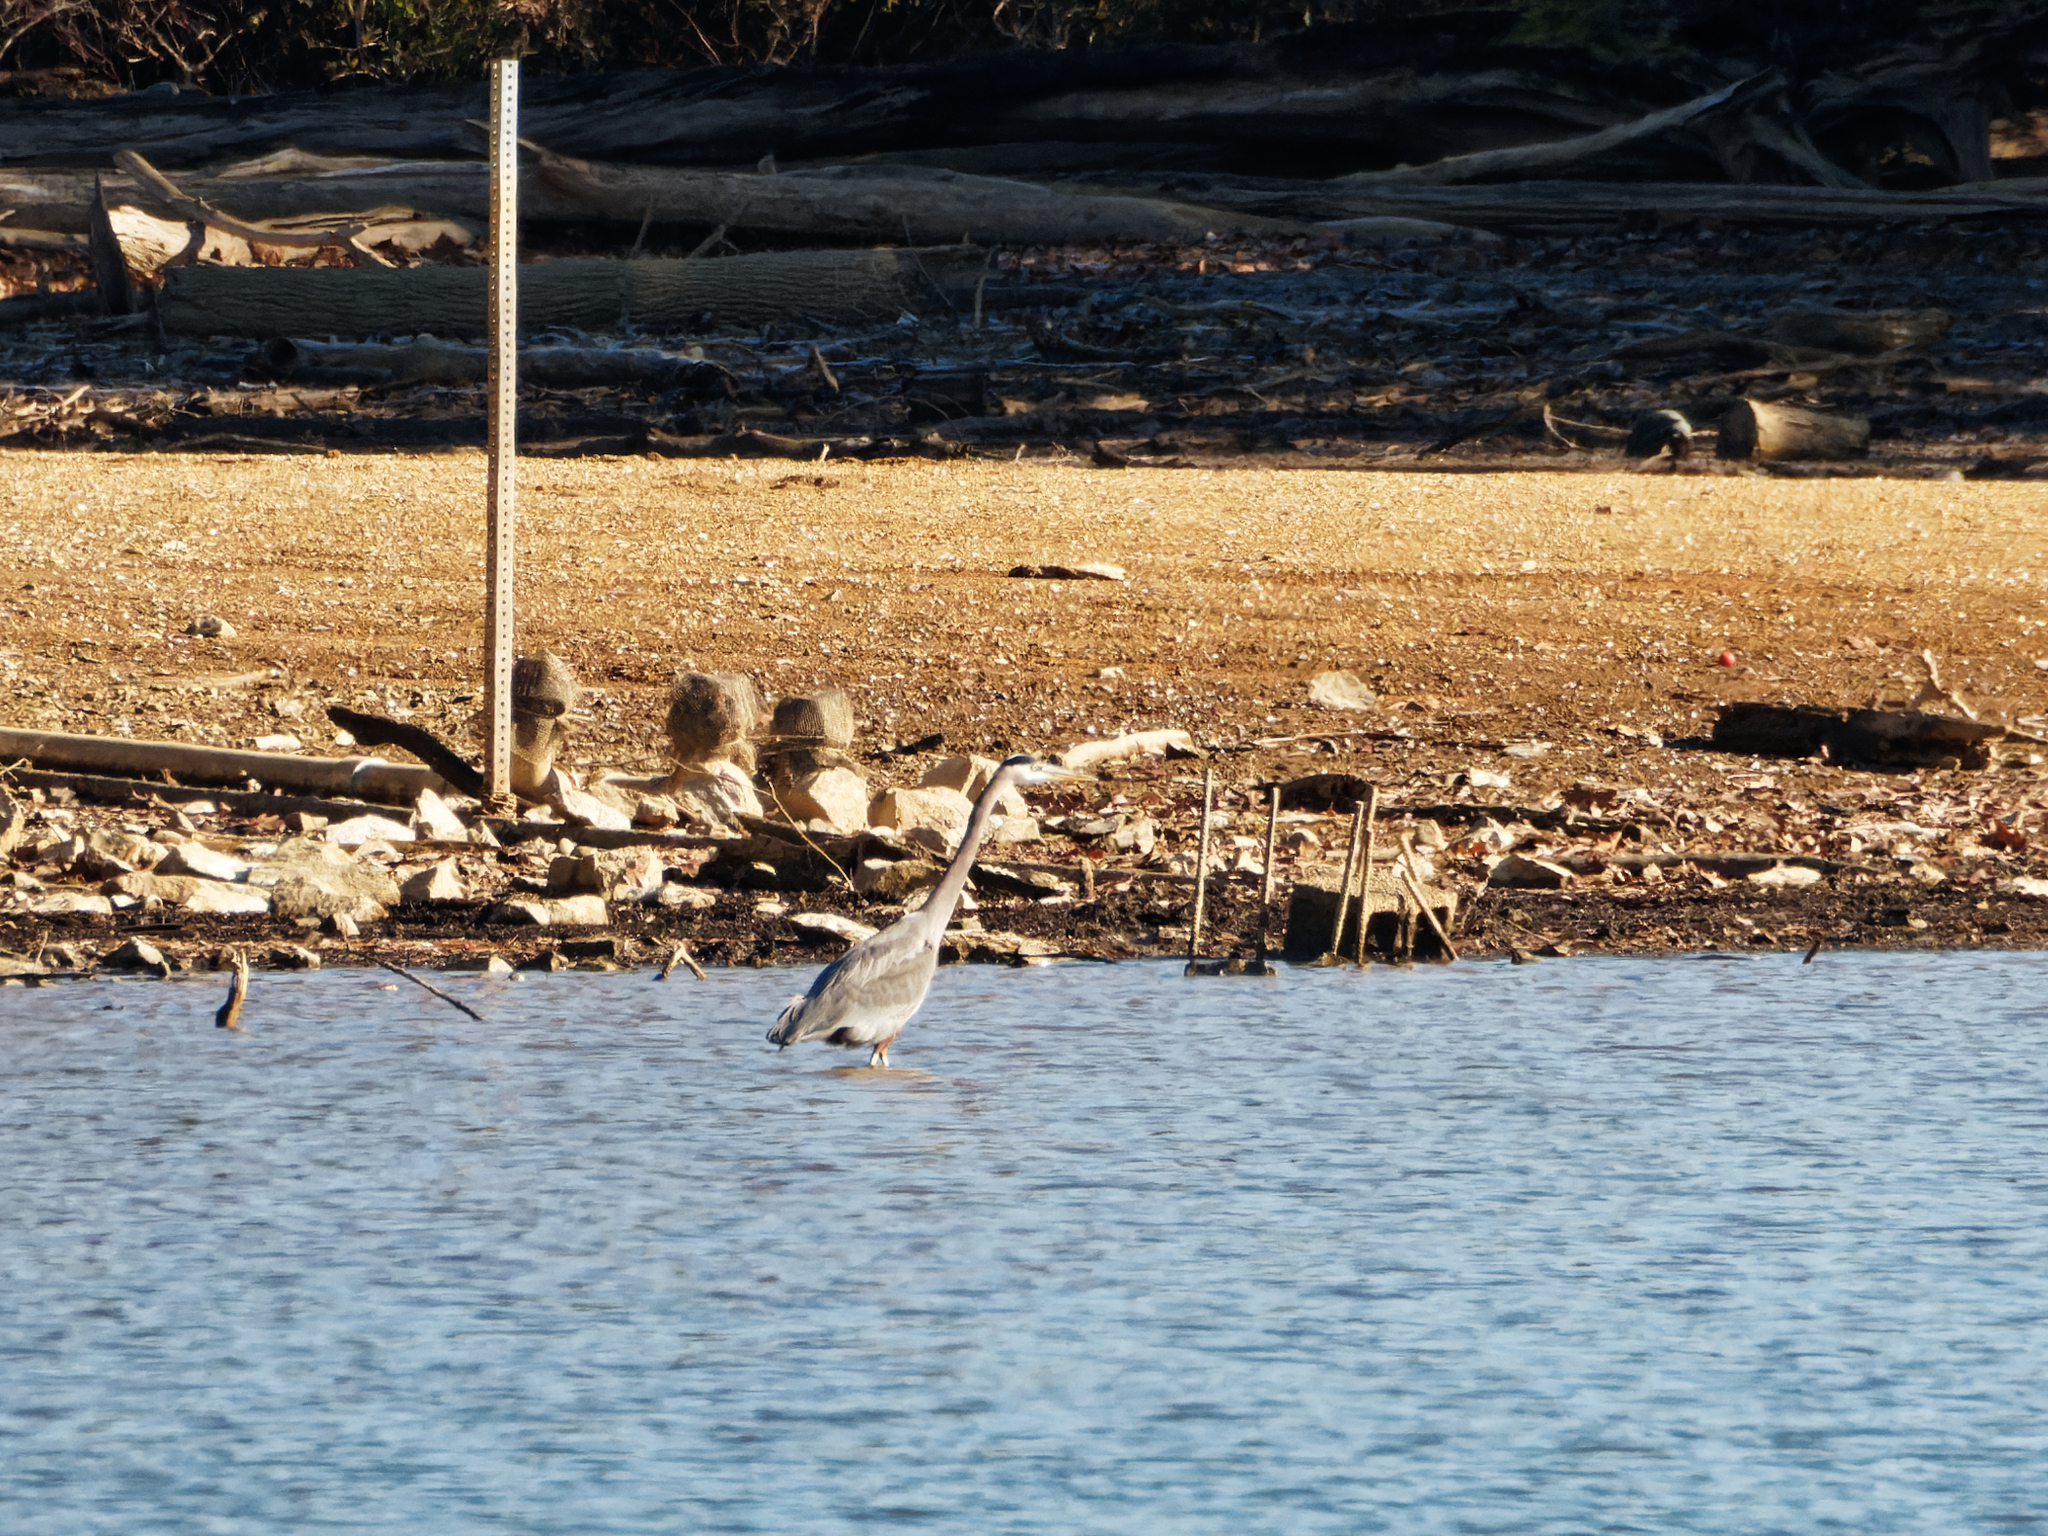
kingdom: Animalia
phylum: Chordata
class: Aves
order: Pelecaniformes
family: Ardeidae
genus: Ardea
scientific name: Ardea herodias
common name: Great blue heron
